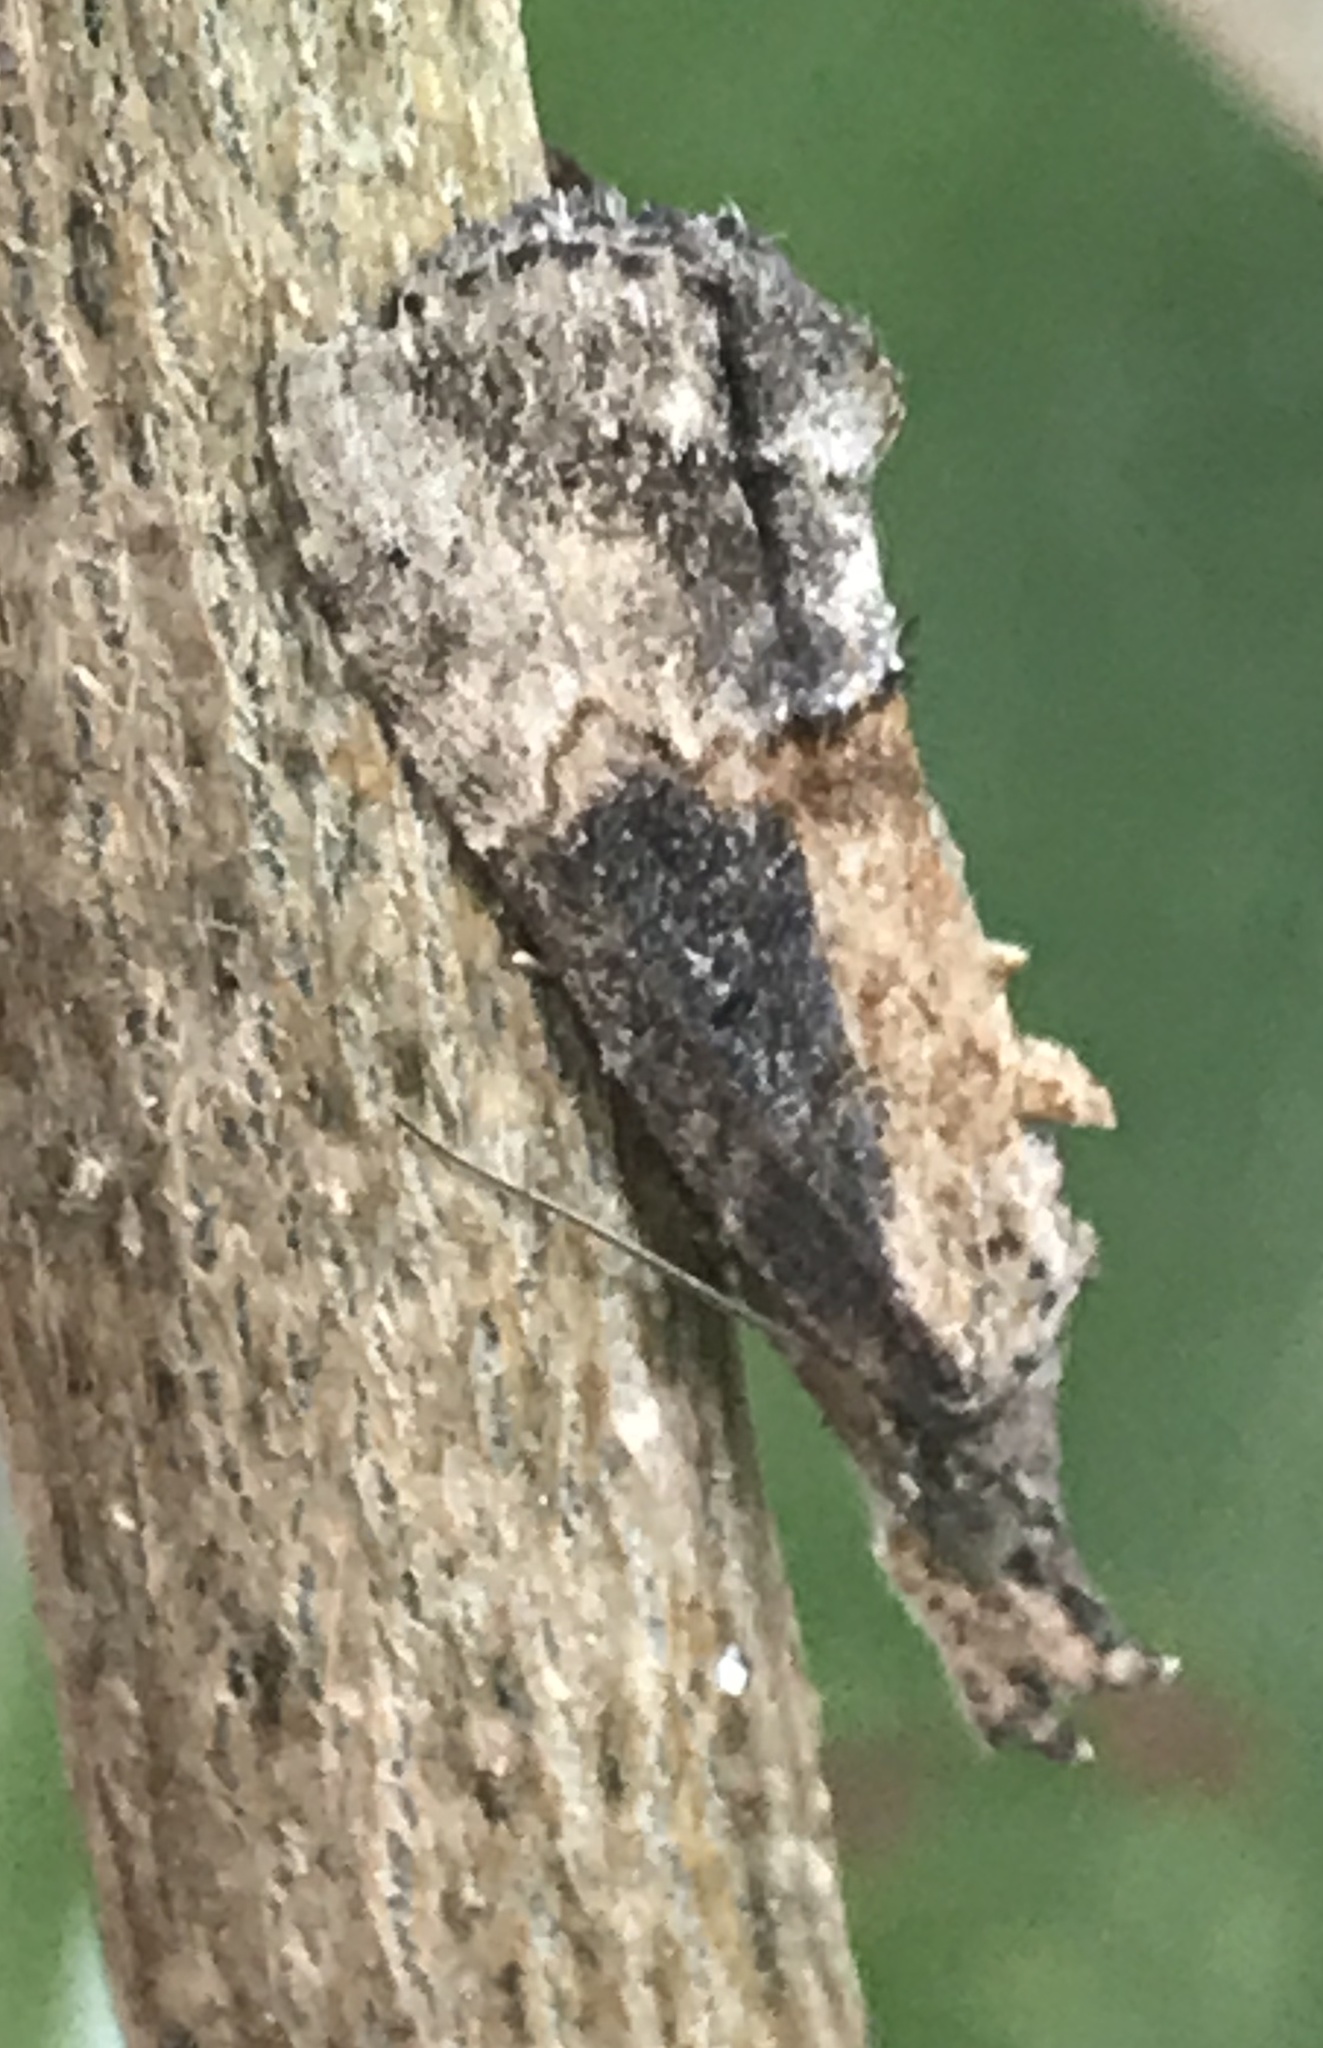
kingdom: Animalia
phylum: Arthropoda
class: Insecta
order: Lepidoptera
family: Erebidae
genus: Hypena
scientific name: Hypena scabra
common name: Green cloverworm
